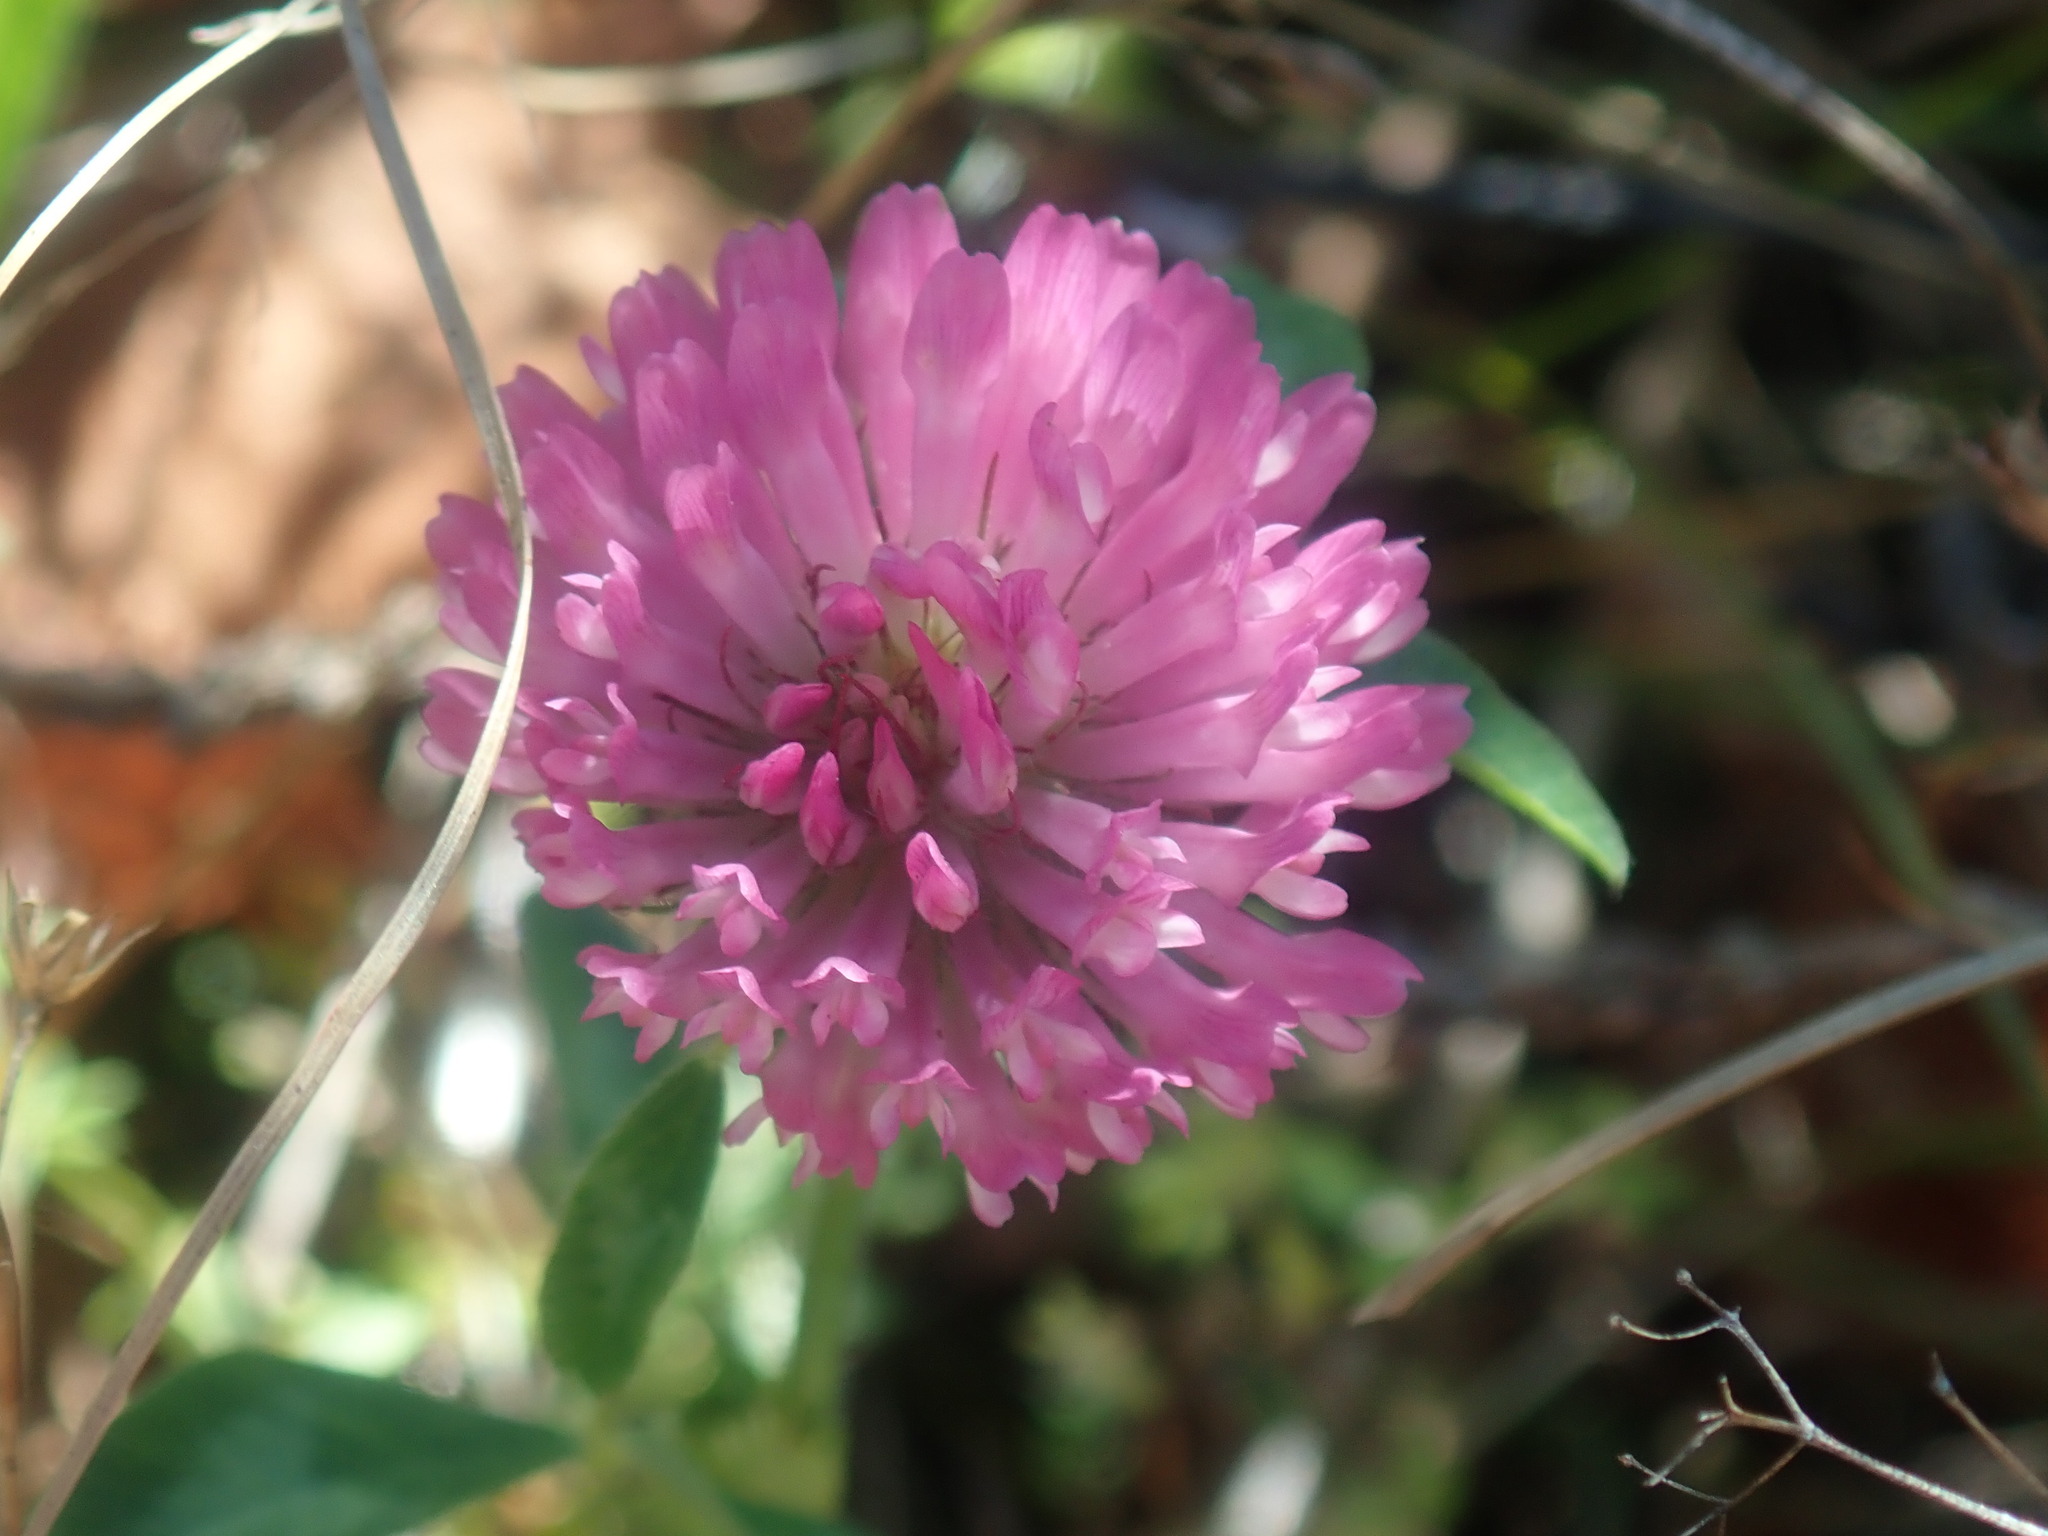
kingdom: Plantae
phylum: Tracheophyta
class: Magnoliopsida
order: Fabales
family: Fabaceae
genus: Trifolium
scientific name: Trifolium pratense
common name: Red clover
